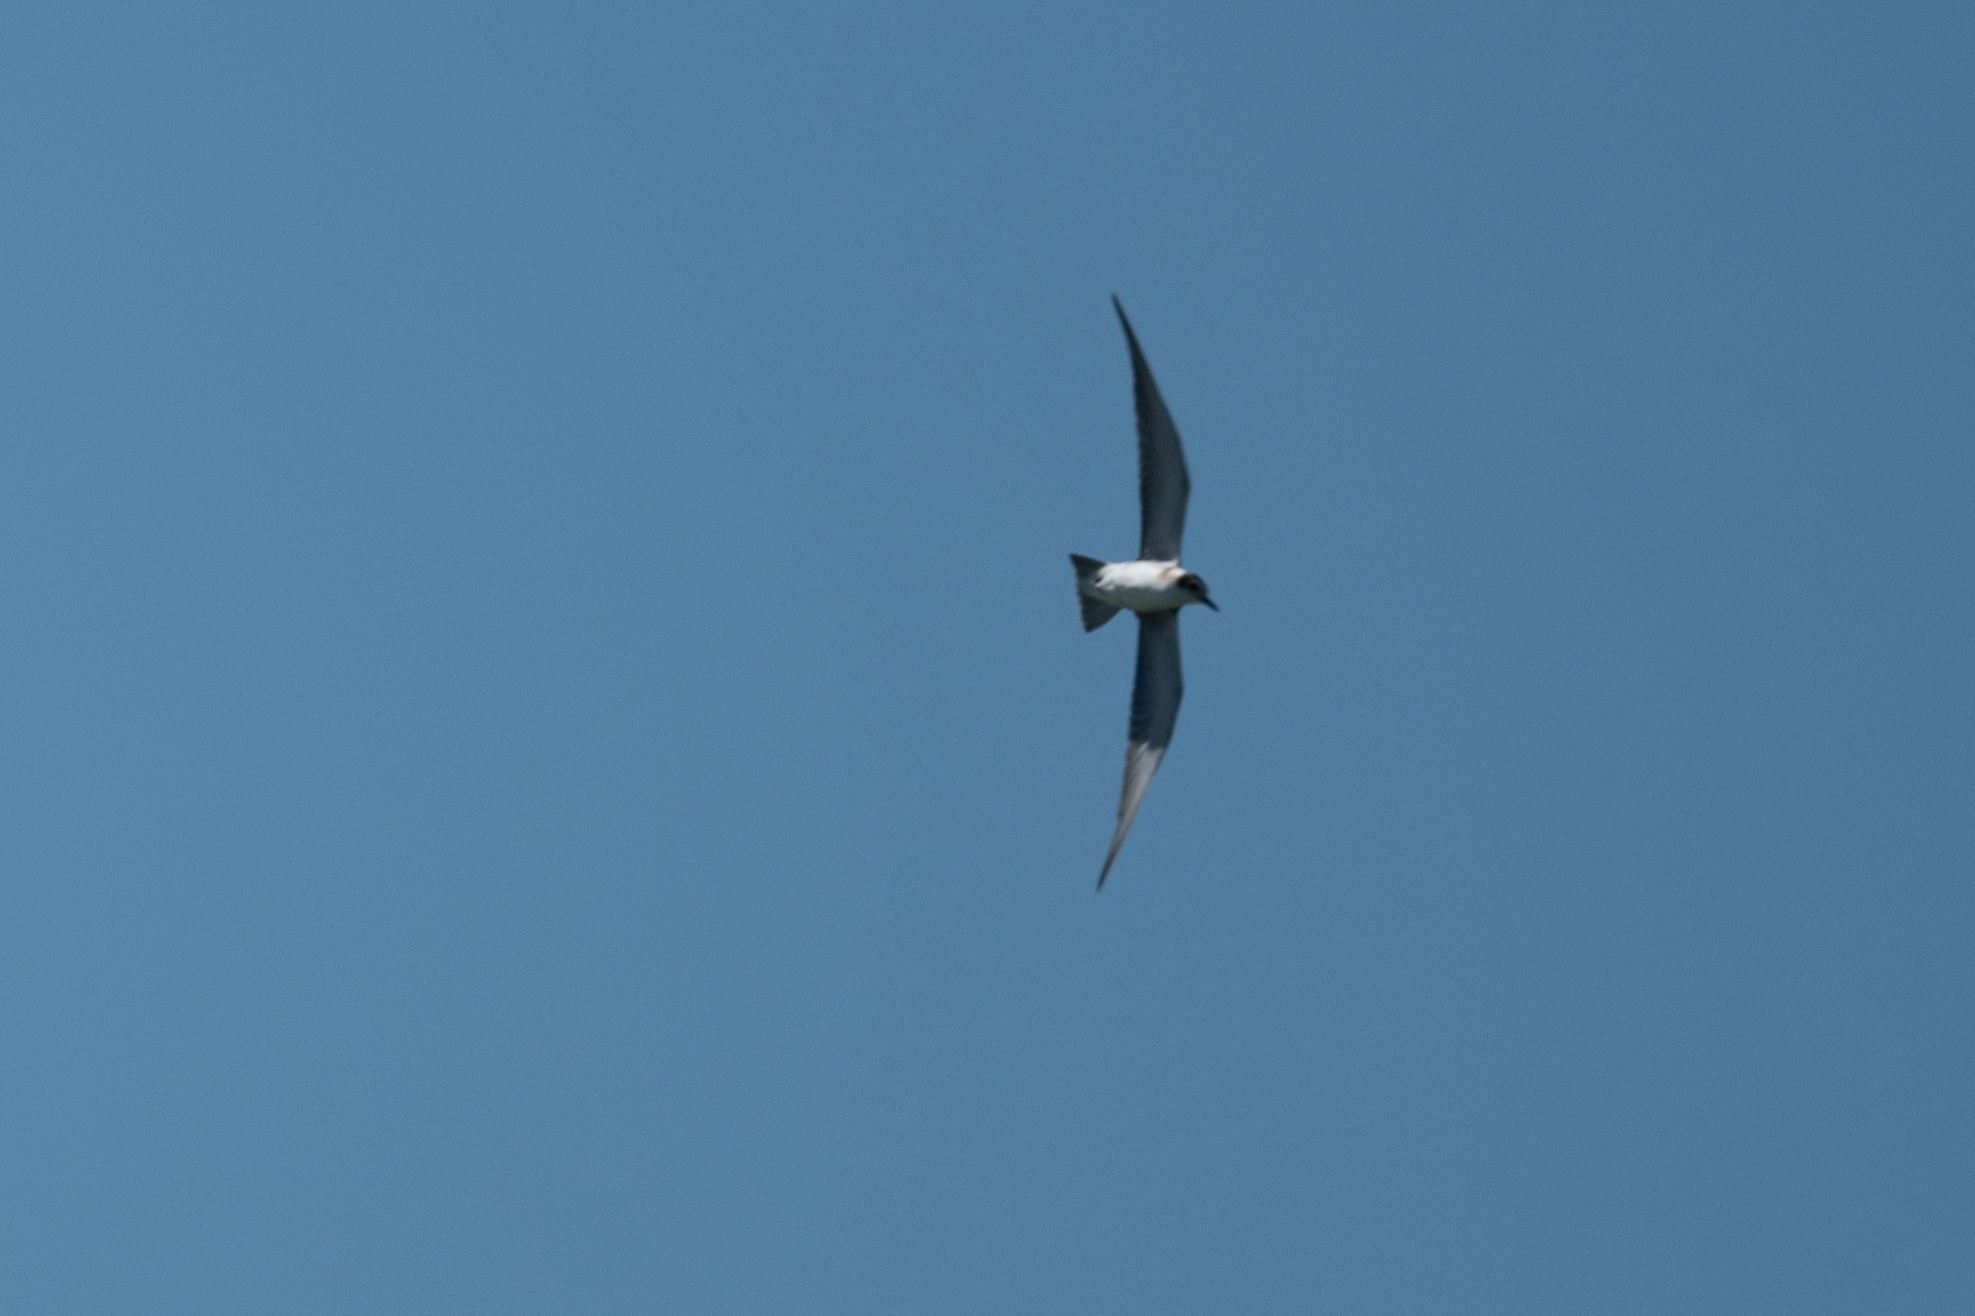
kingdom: Animalia
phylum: Chordata
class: Aves
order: Charadriiformes
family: Laridae
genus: Chlidonias
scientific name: Chlidonias niger
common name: Black tern
